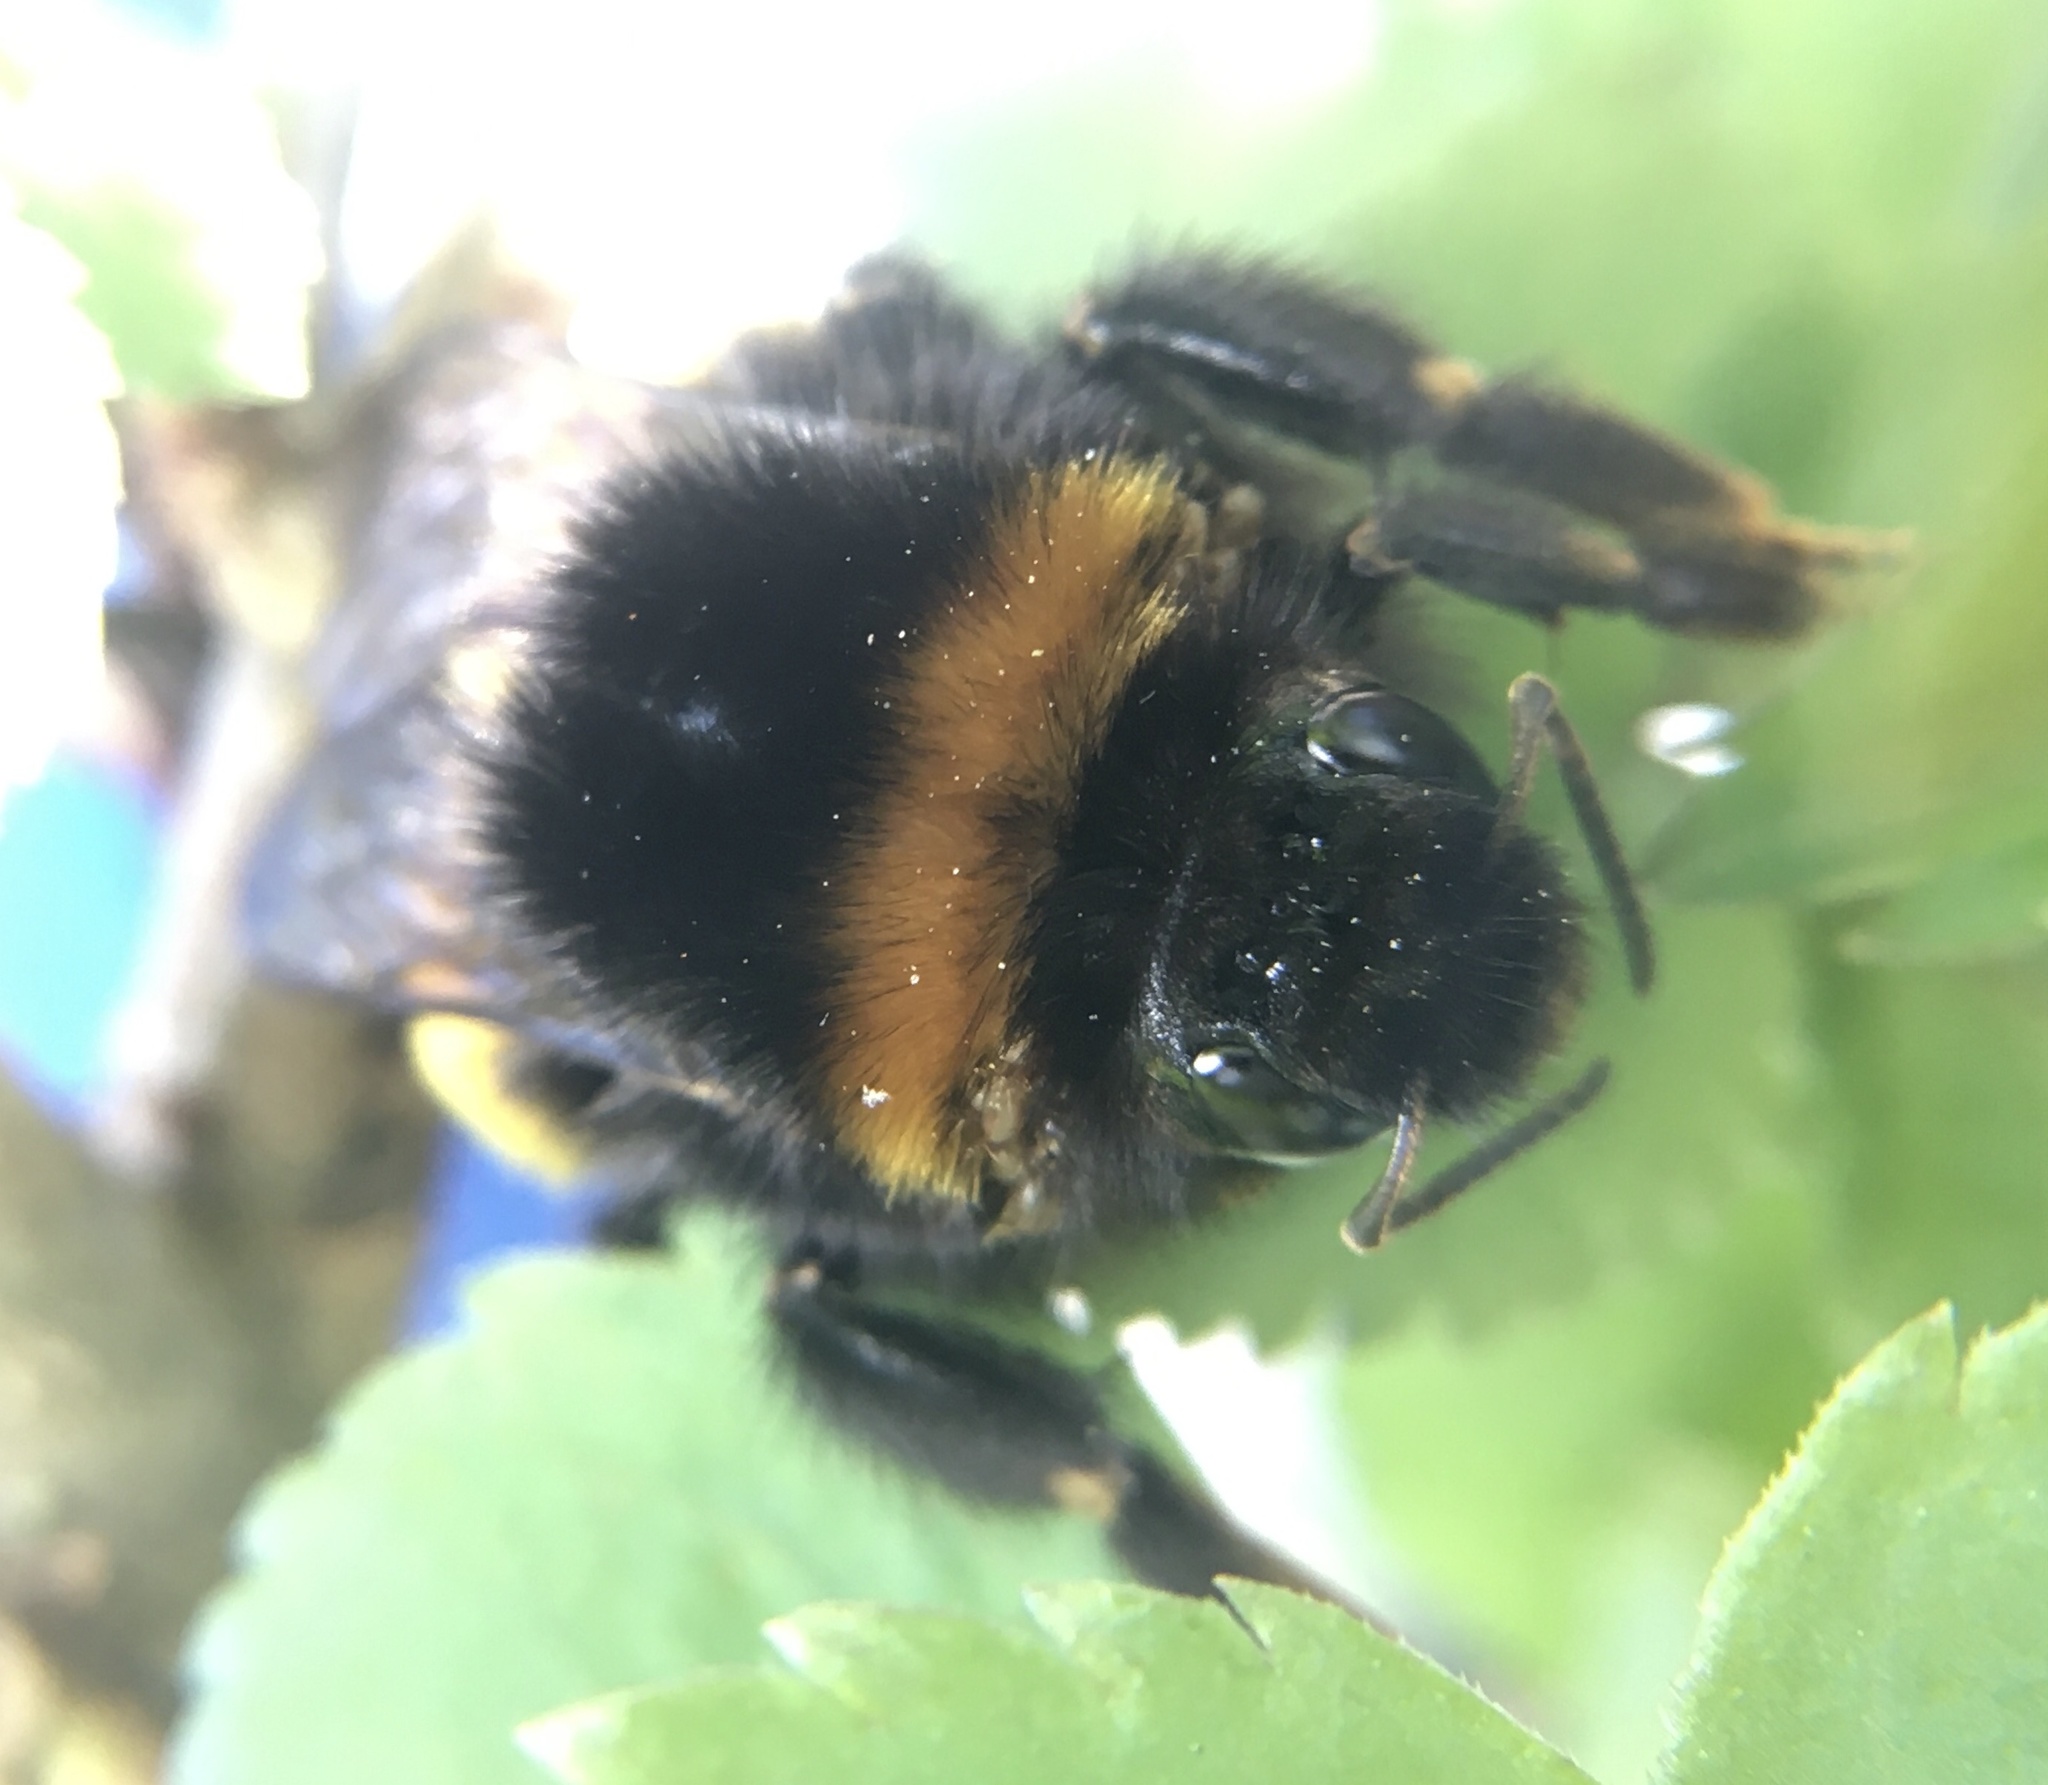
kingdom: Animalia
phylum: Arthropoda
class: Insecta
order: Hymenoptera
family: Apidae
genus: Bombus
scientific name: Bombus terrestris
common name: Buff-tailed bumblebee
